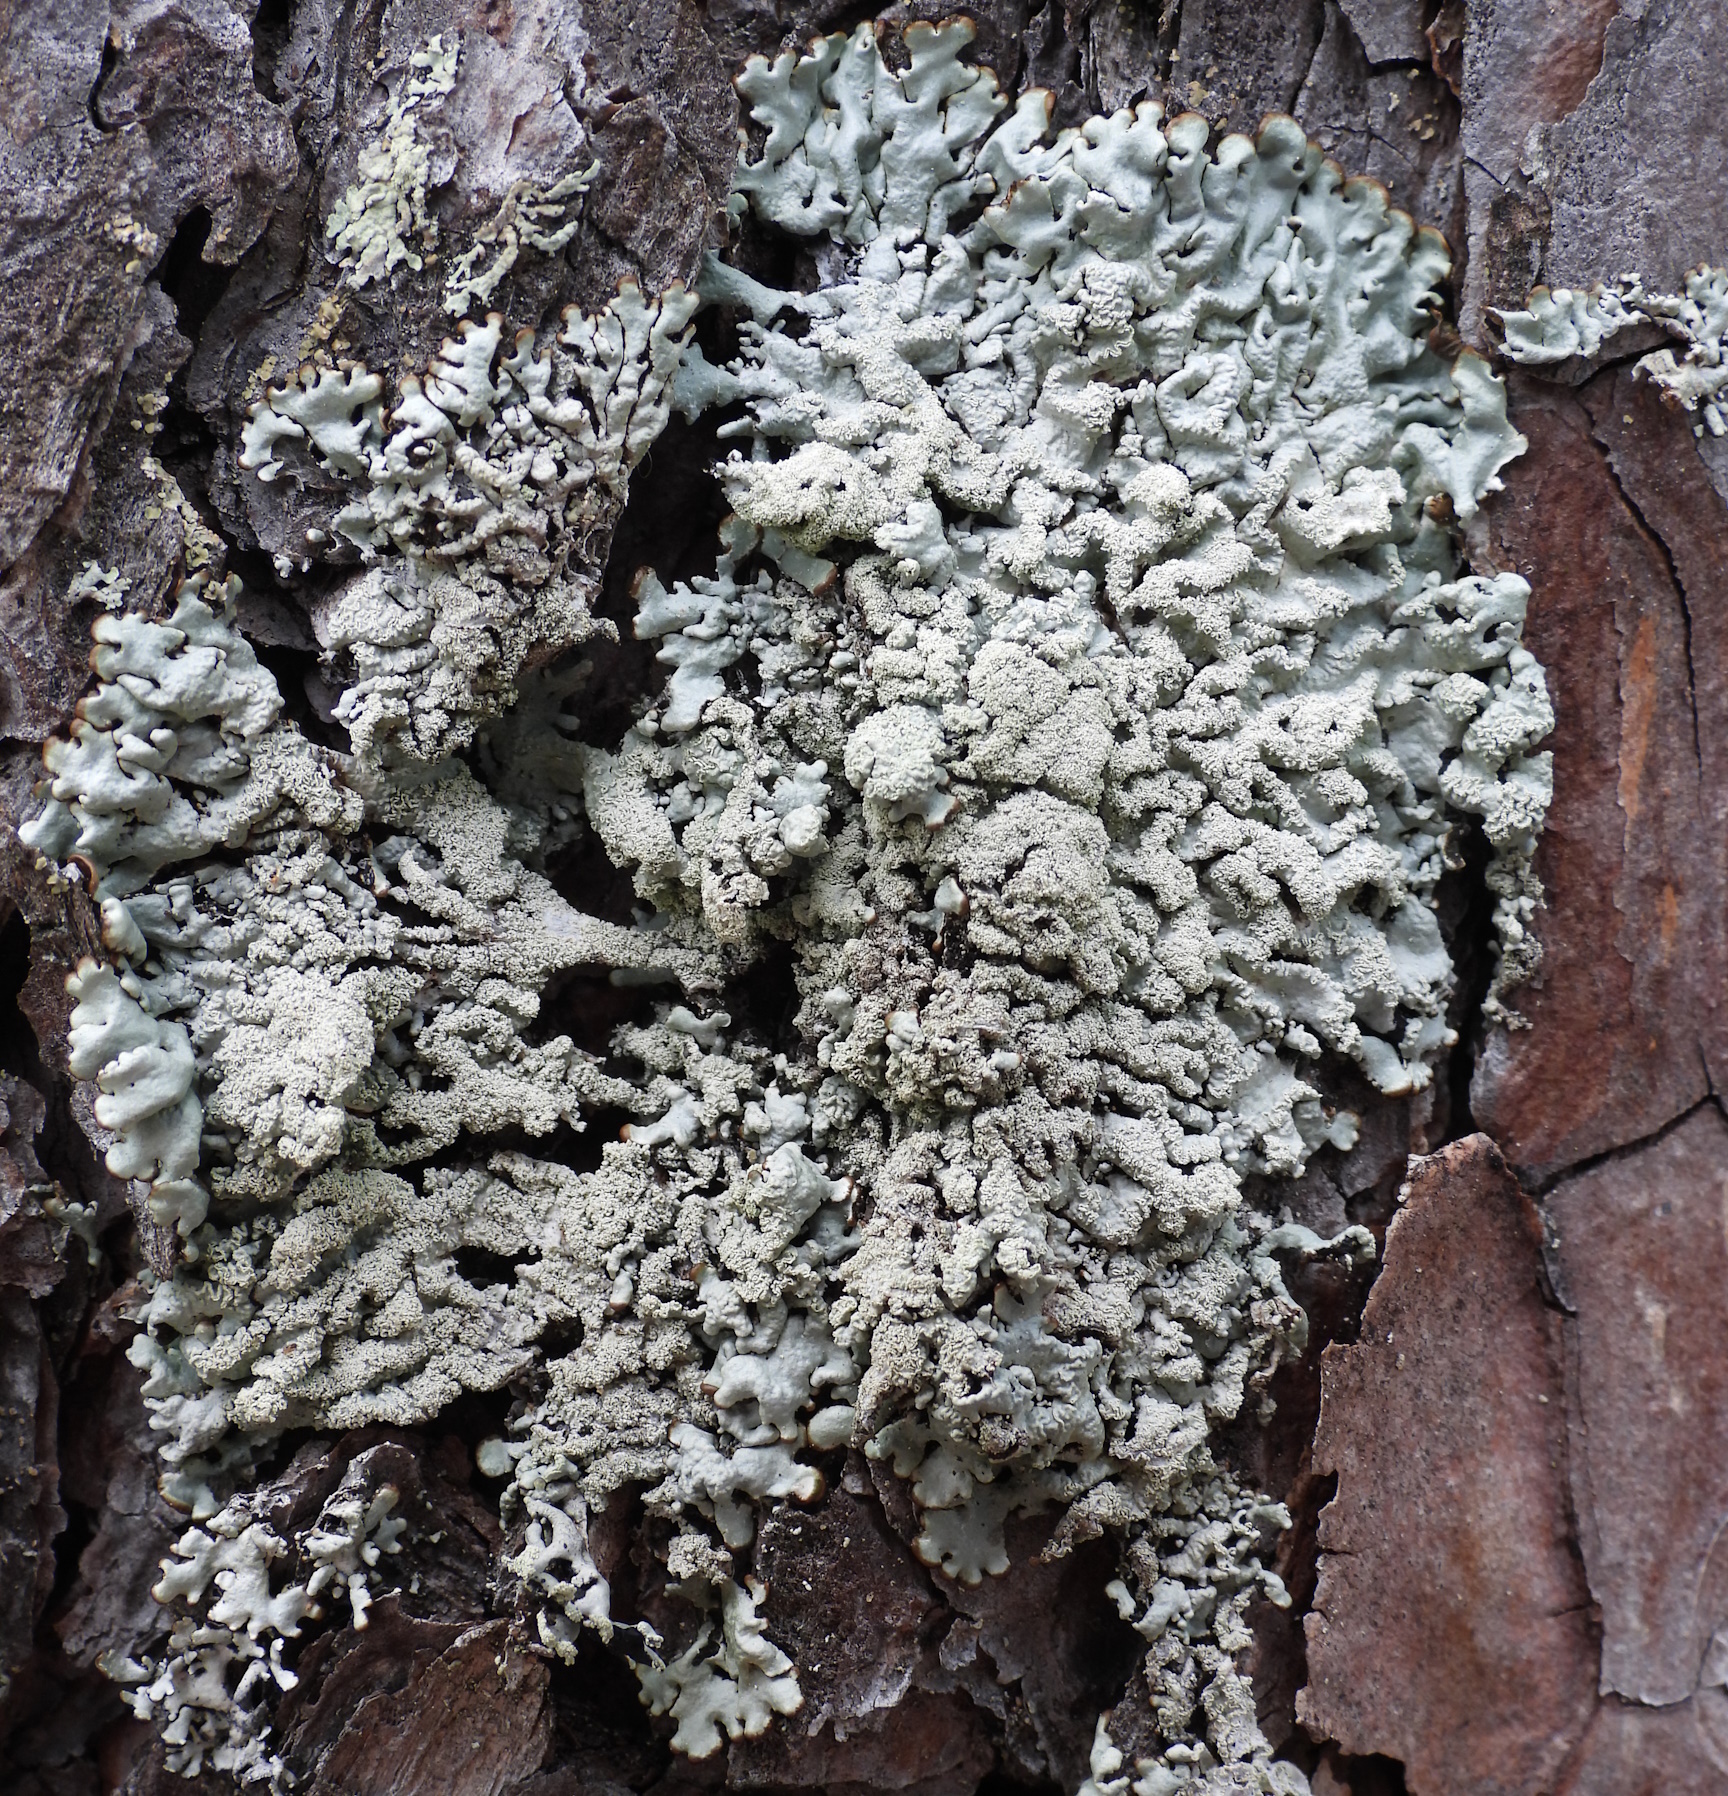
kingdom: Fungi
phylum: Ascomycota
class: Lecanoromycetes
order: Lecanorales
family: Parmeliaceae
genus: Hypogymnia
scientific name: Hypogymnia farinacea
